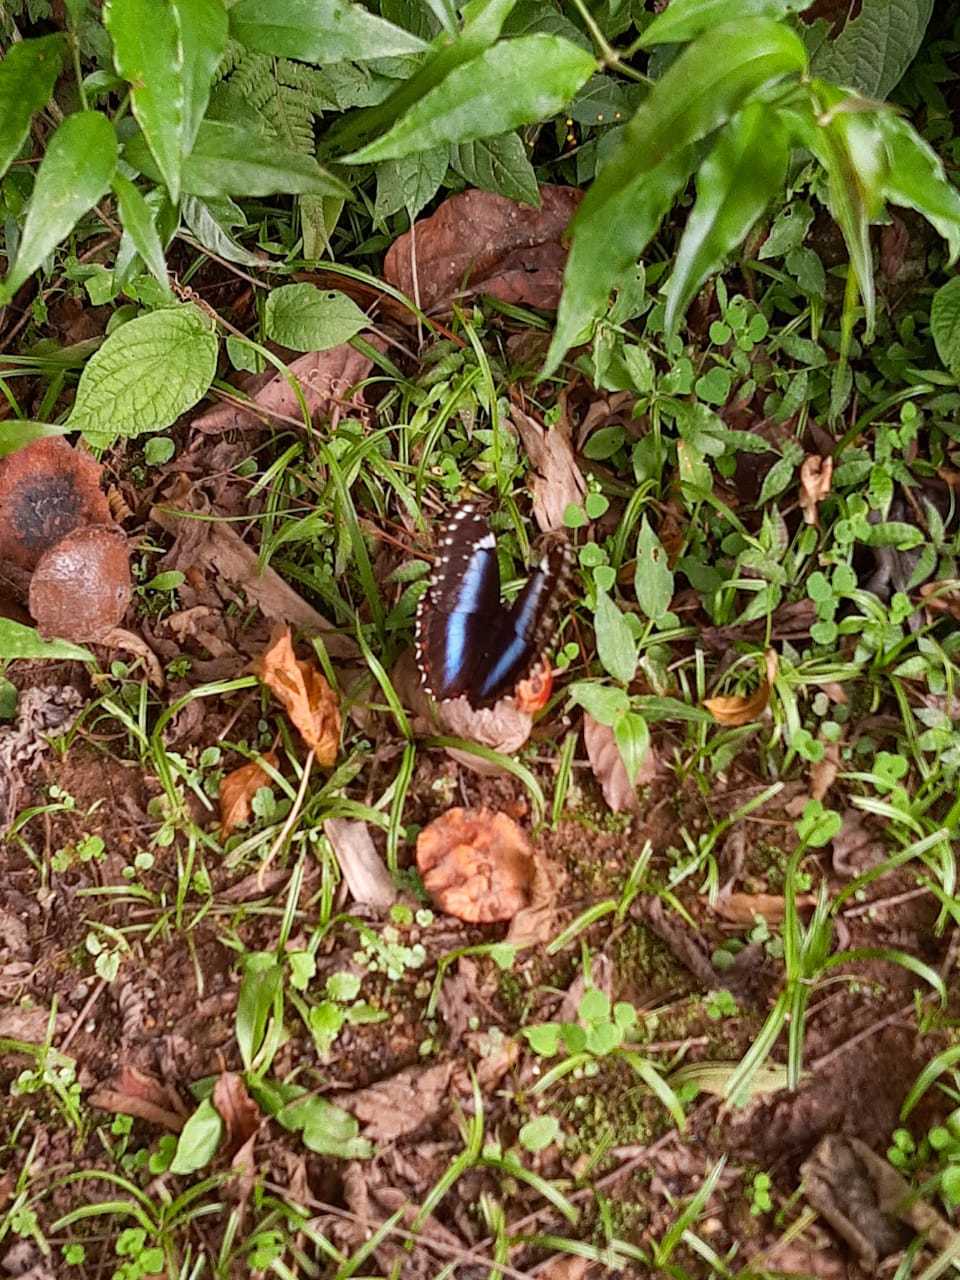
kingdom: Animalia
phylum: Arthropoda
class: Insecta
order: Lepidoptera
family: Nymphalidae
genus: Morpho
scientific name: Morpho helenor
